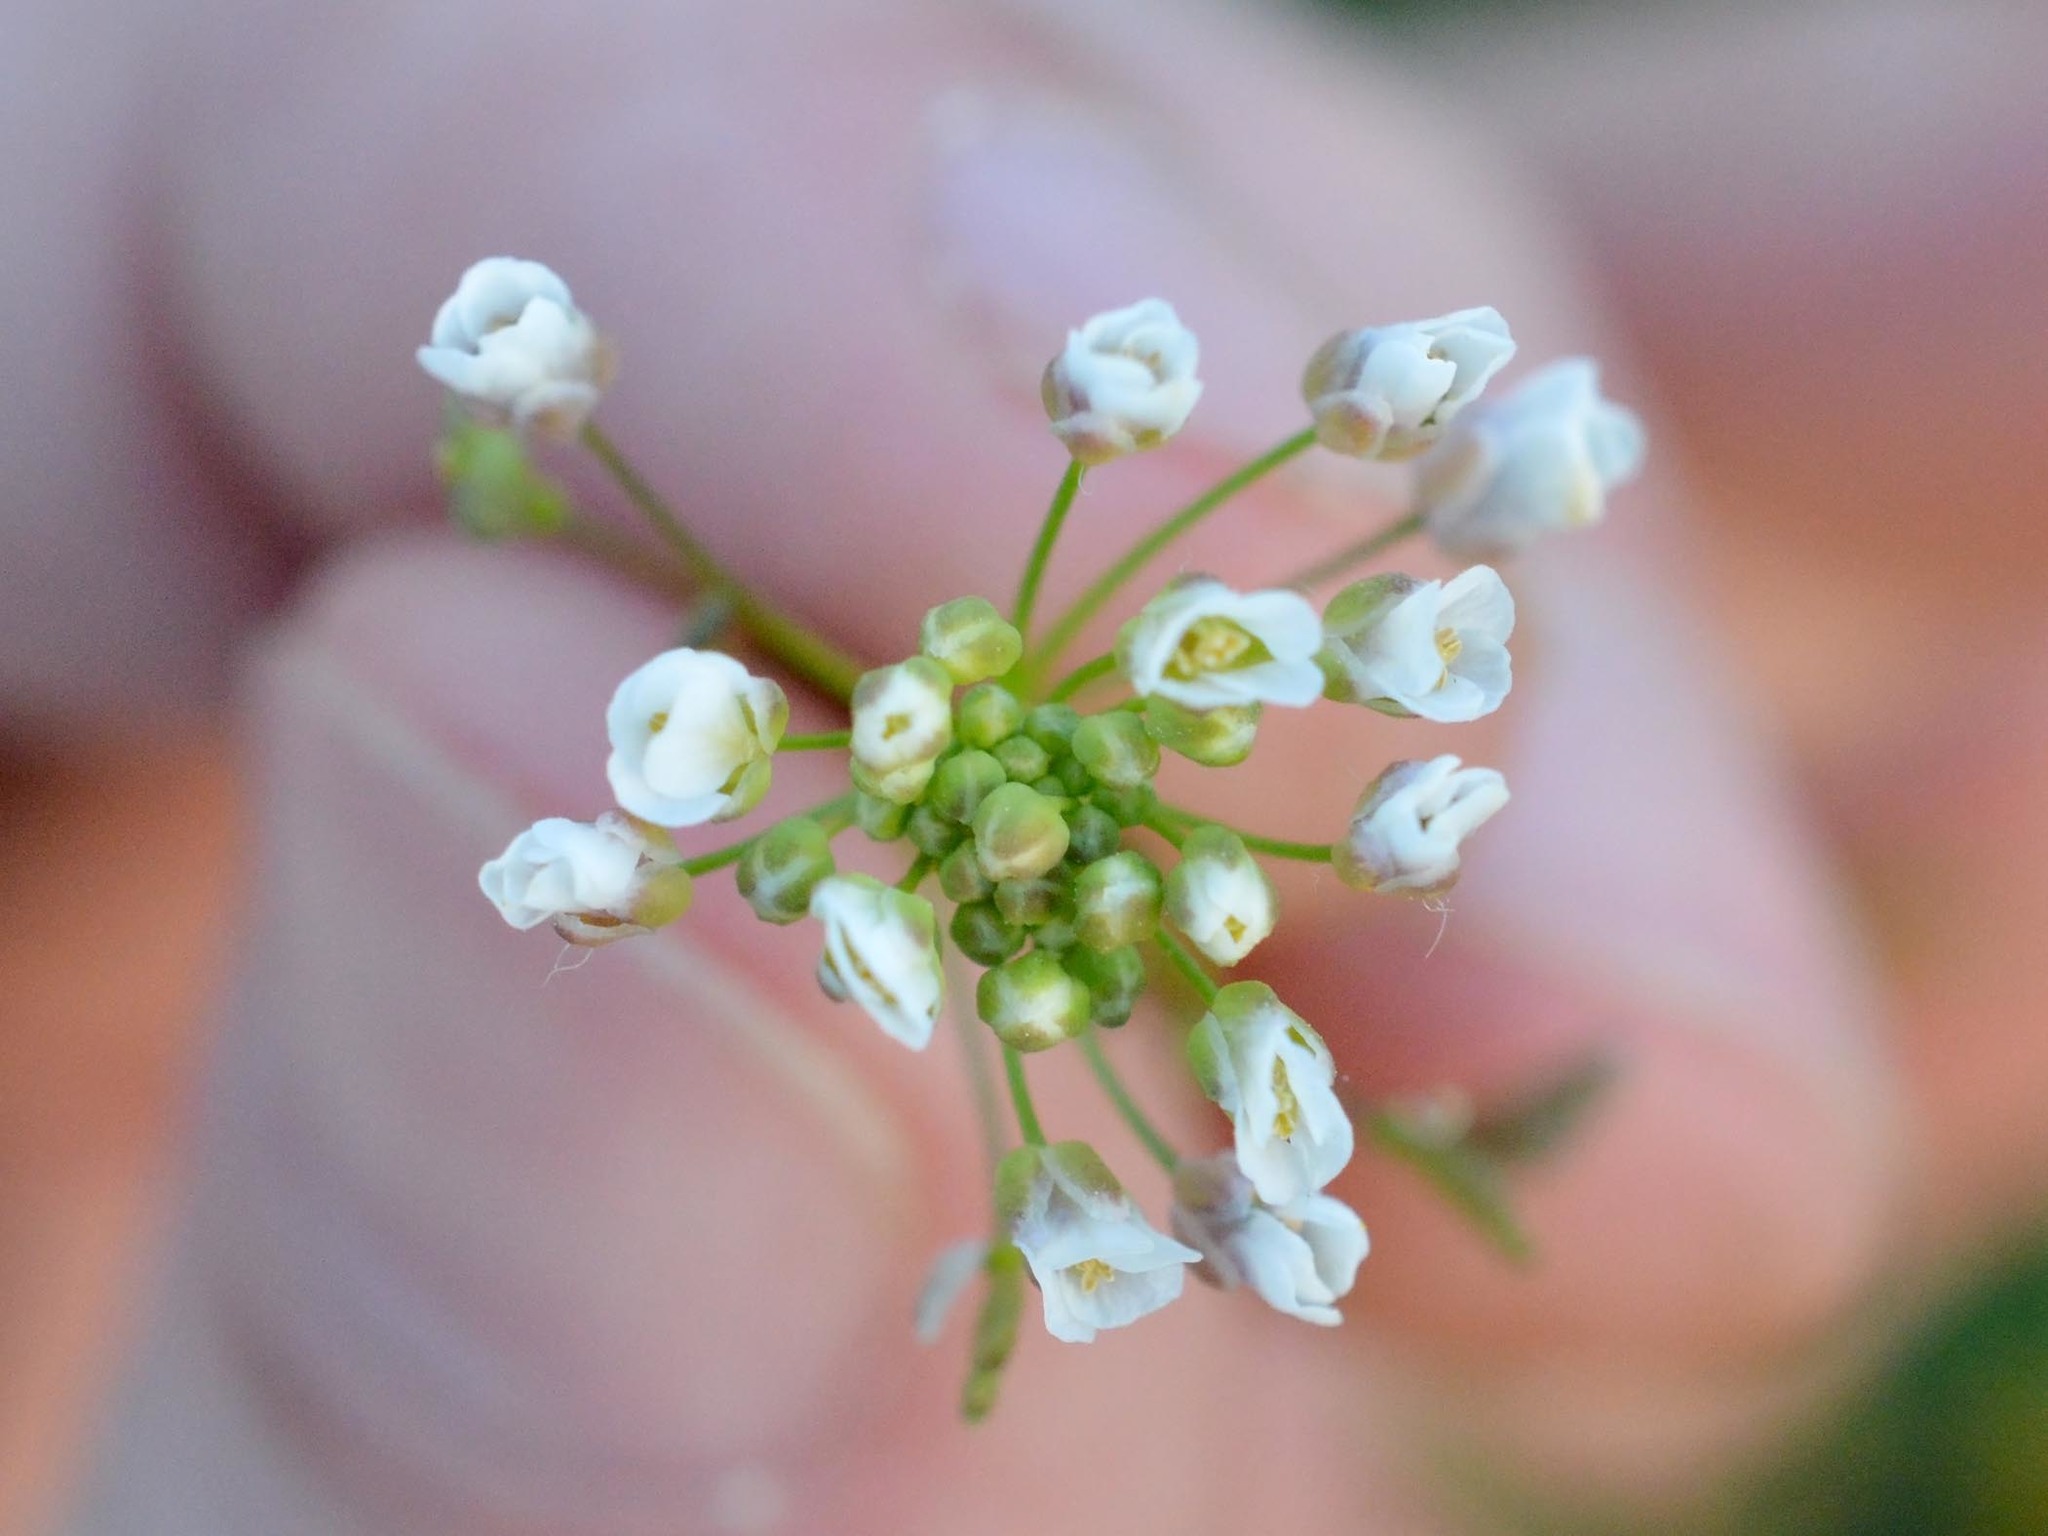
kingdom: Plantae
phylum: Tracheophyta
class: Magnoliopsida
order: Brassicales
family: Brassicaceae
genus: Capsella
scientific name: Capsella bursa-pastoris
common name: Shepherd's purse
